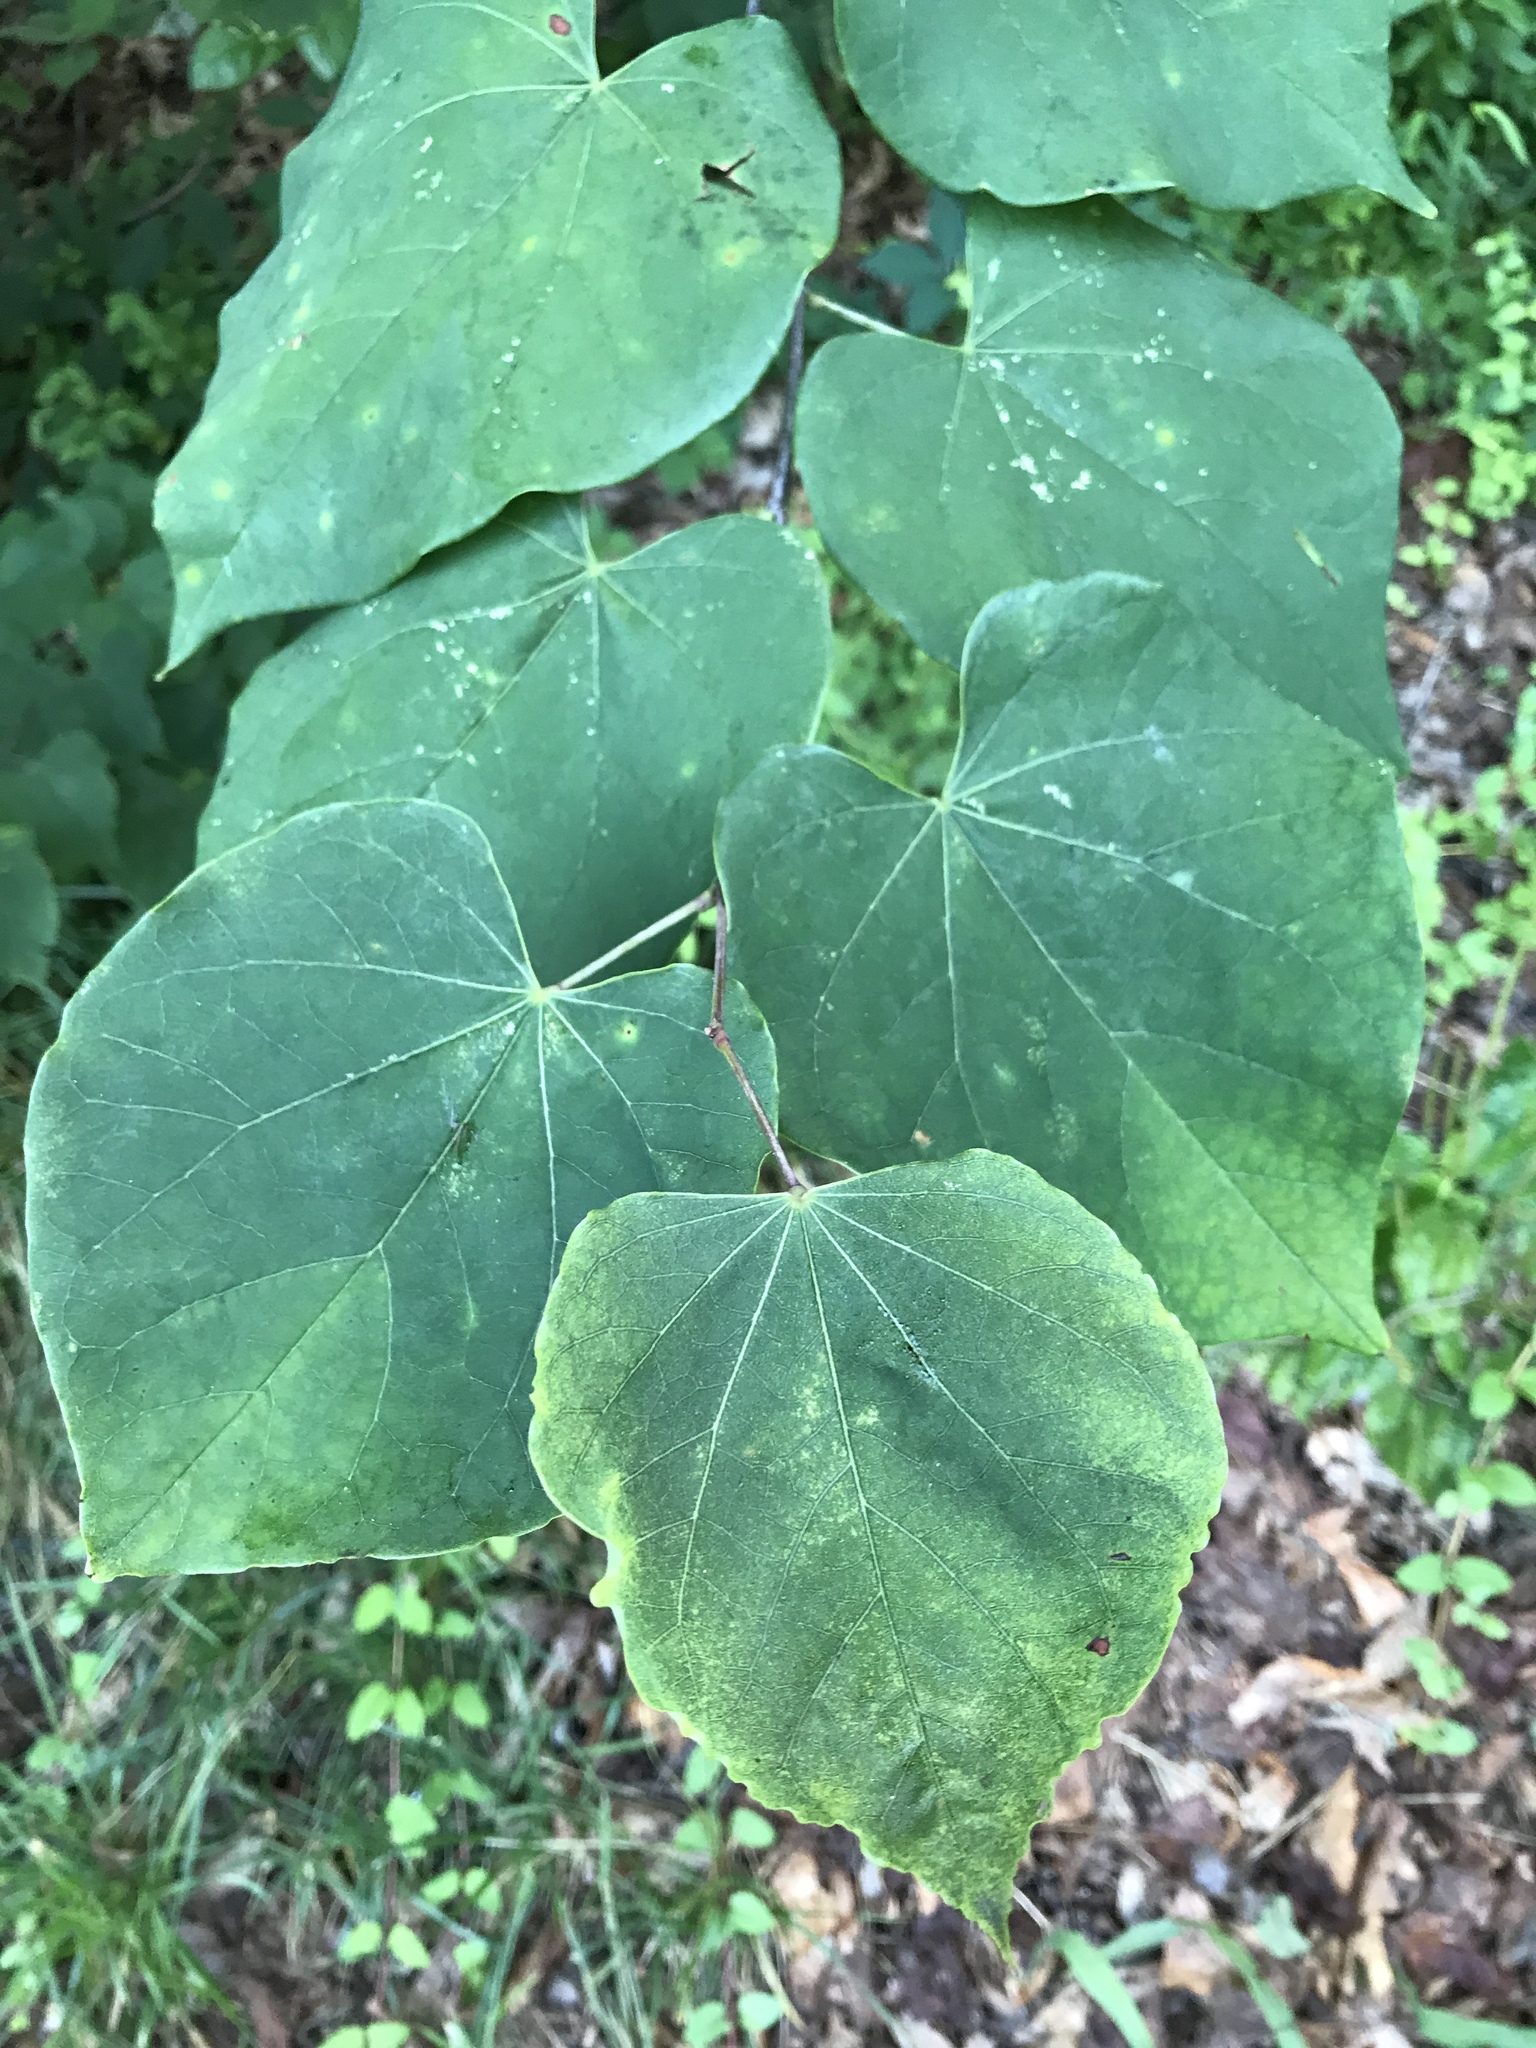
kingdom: Plantae
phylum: Tracheophyta
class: Magnoliopsida
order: Fabales
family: Fabaceae
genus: Cercis
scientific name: Cercis canadensis
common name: Eastern redbud
